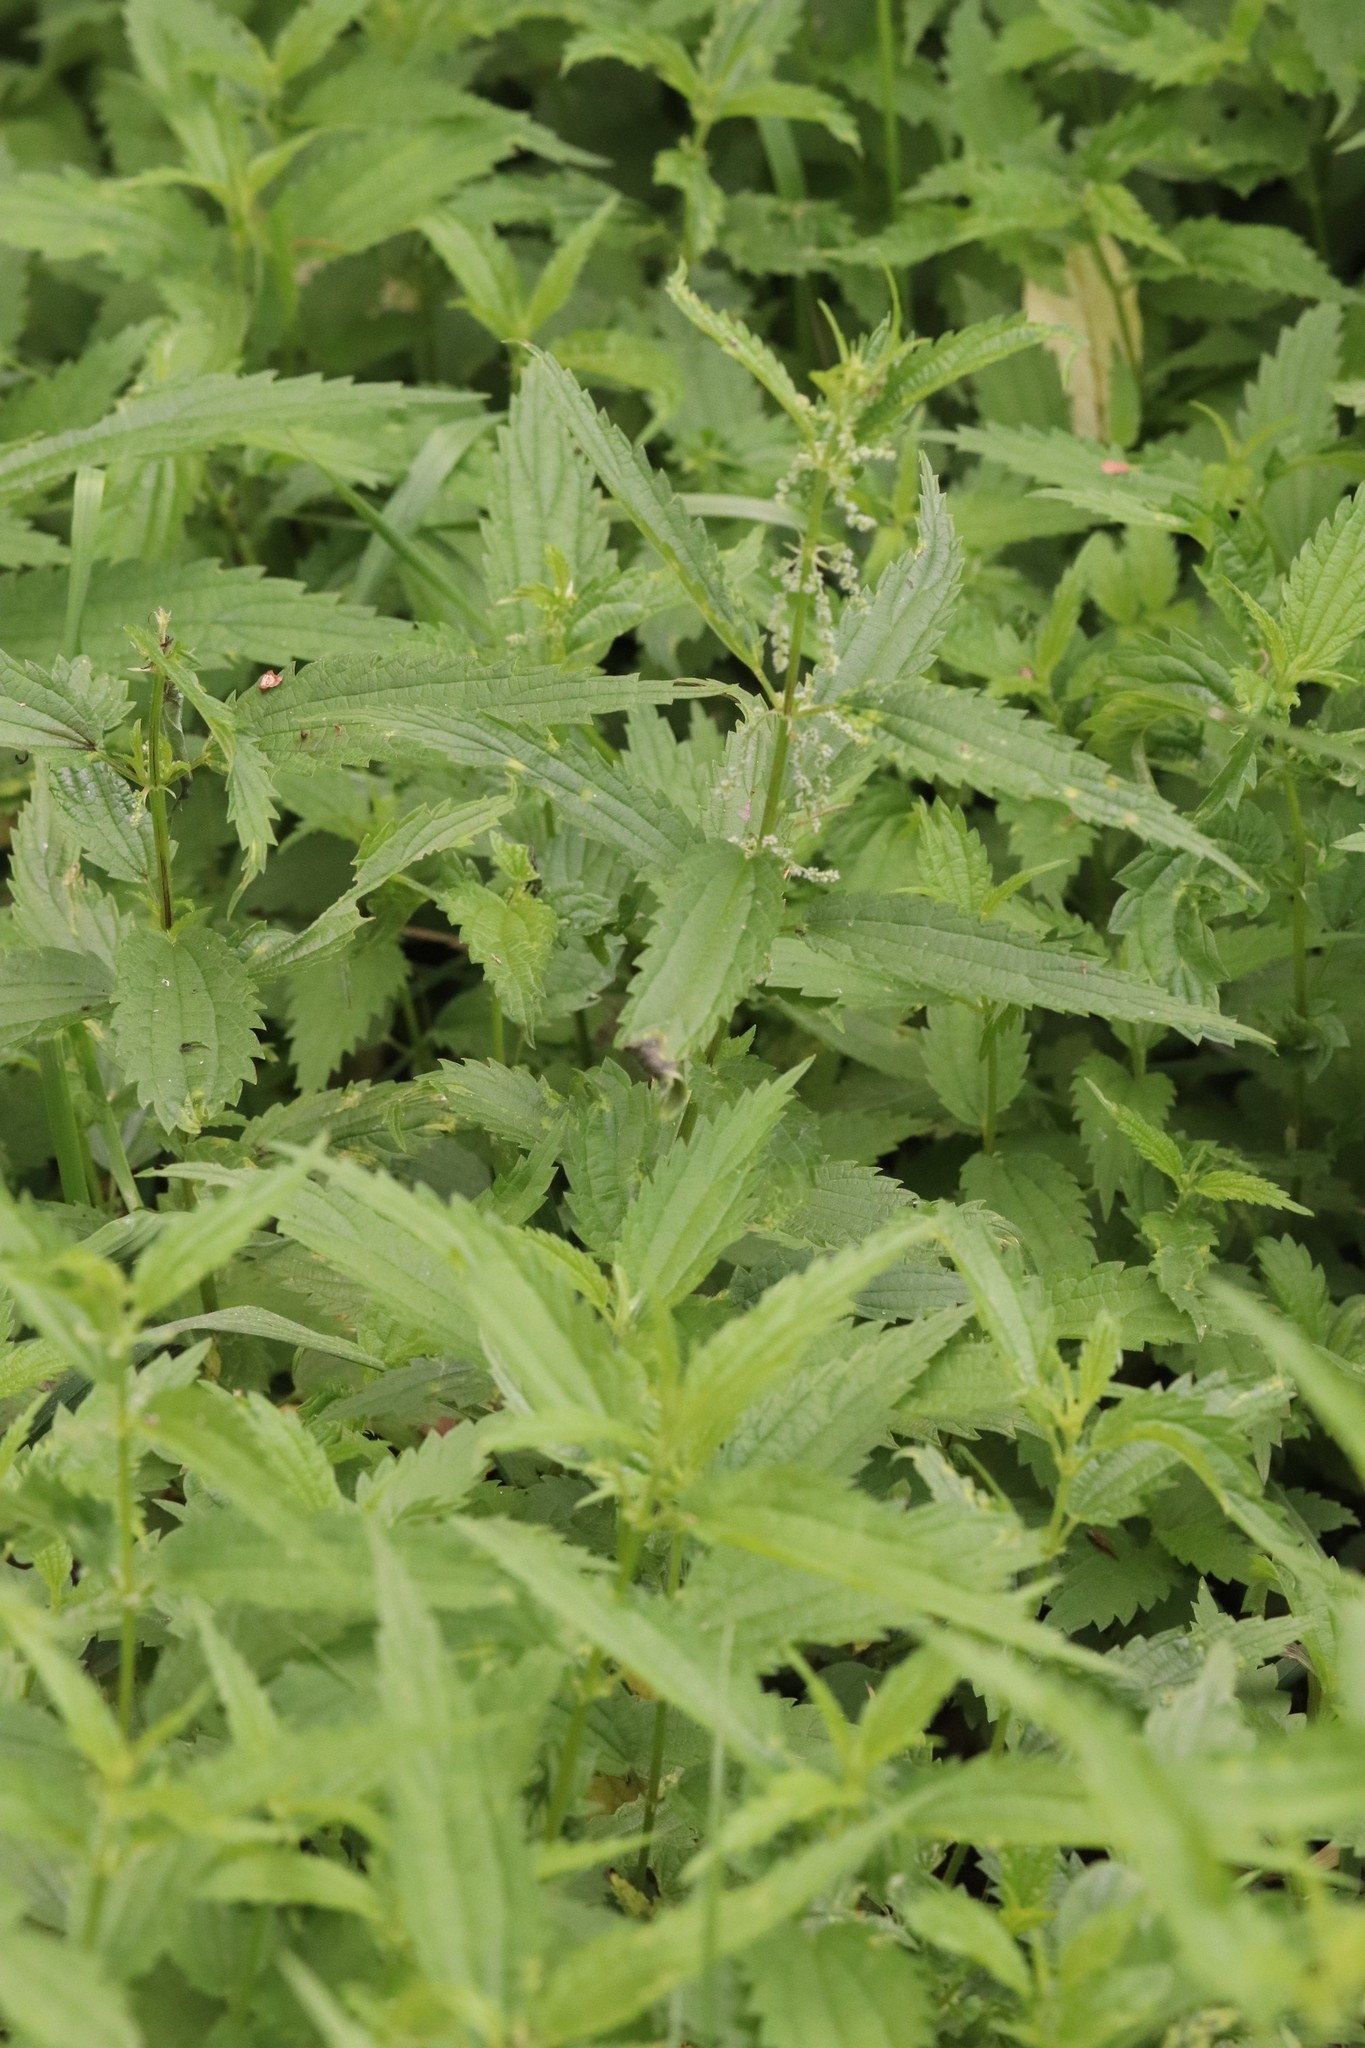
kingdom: Plantae
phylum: Tracheophyta
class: Magnoliopsida
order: Rosales
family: Urticaceae
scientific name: Urticaceae
